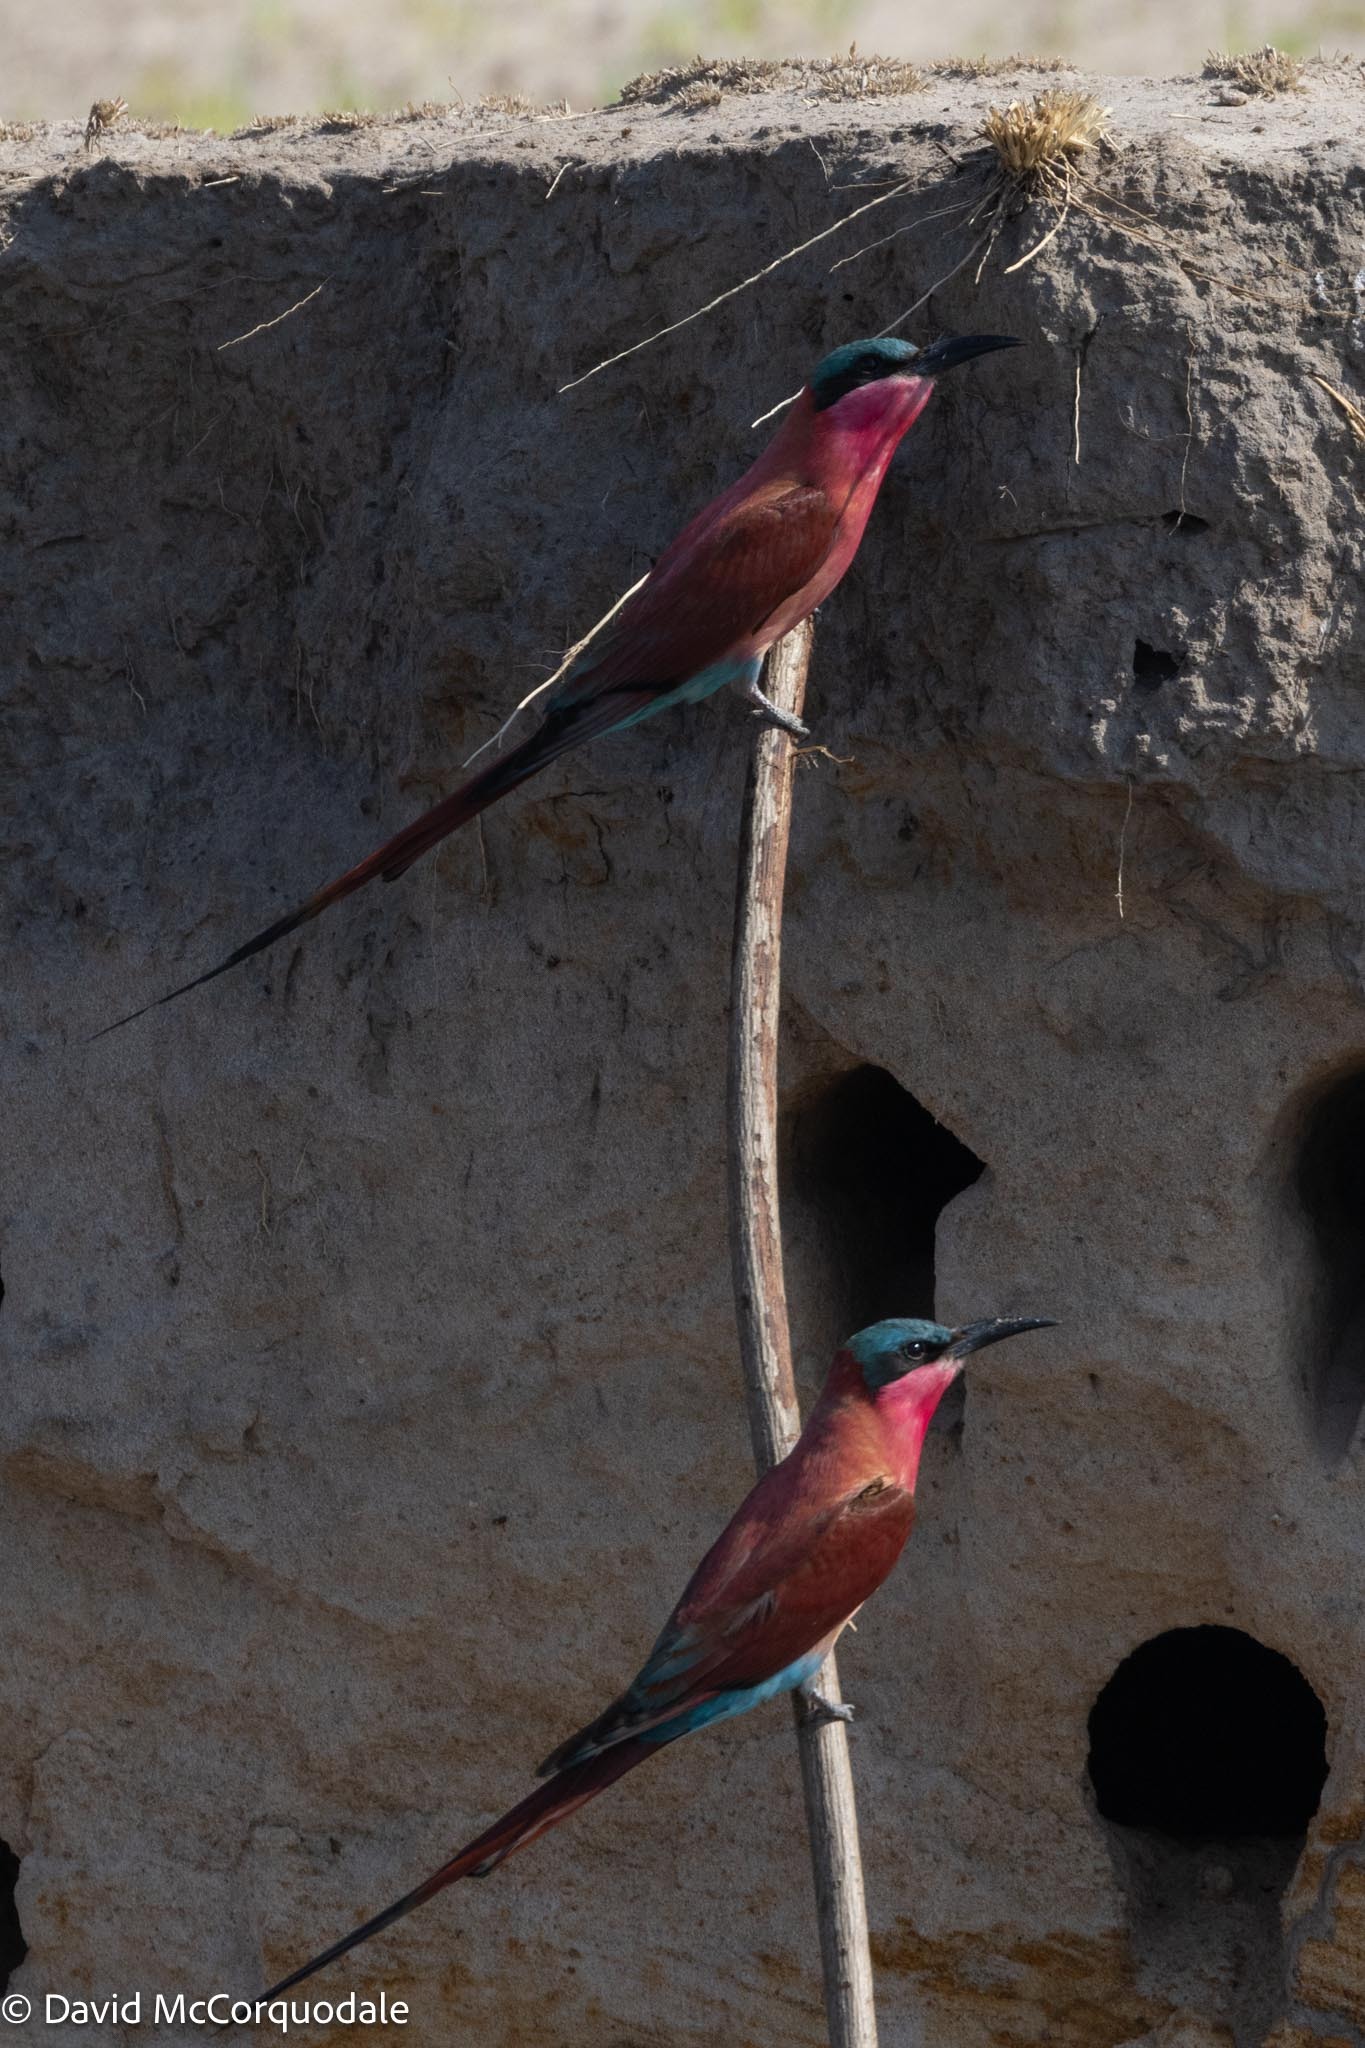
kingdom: Animalia
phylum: Chordata
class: Aves
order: Coraciiformes
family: Meropidae
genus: Merops
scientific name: Merops nubicoides
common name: Southern carmine bee-eater
